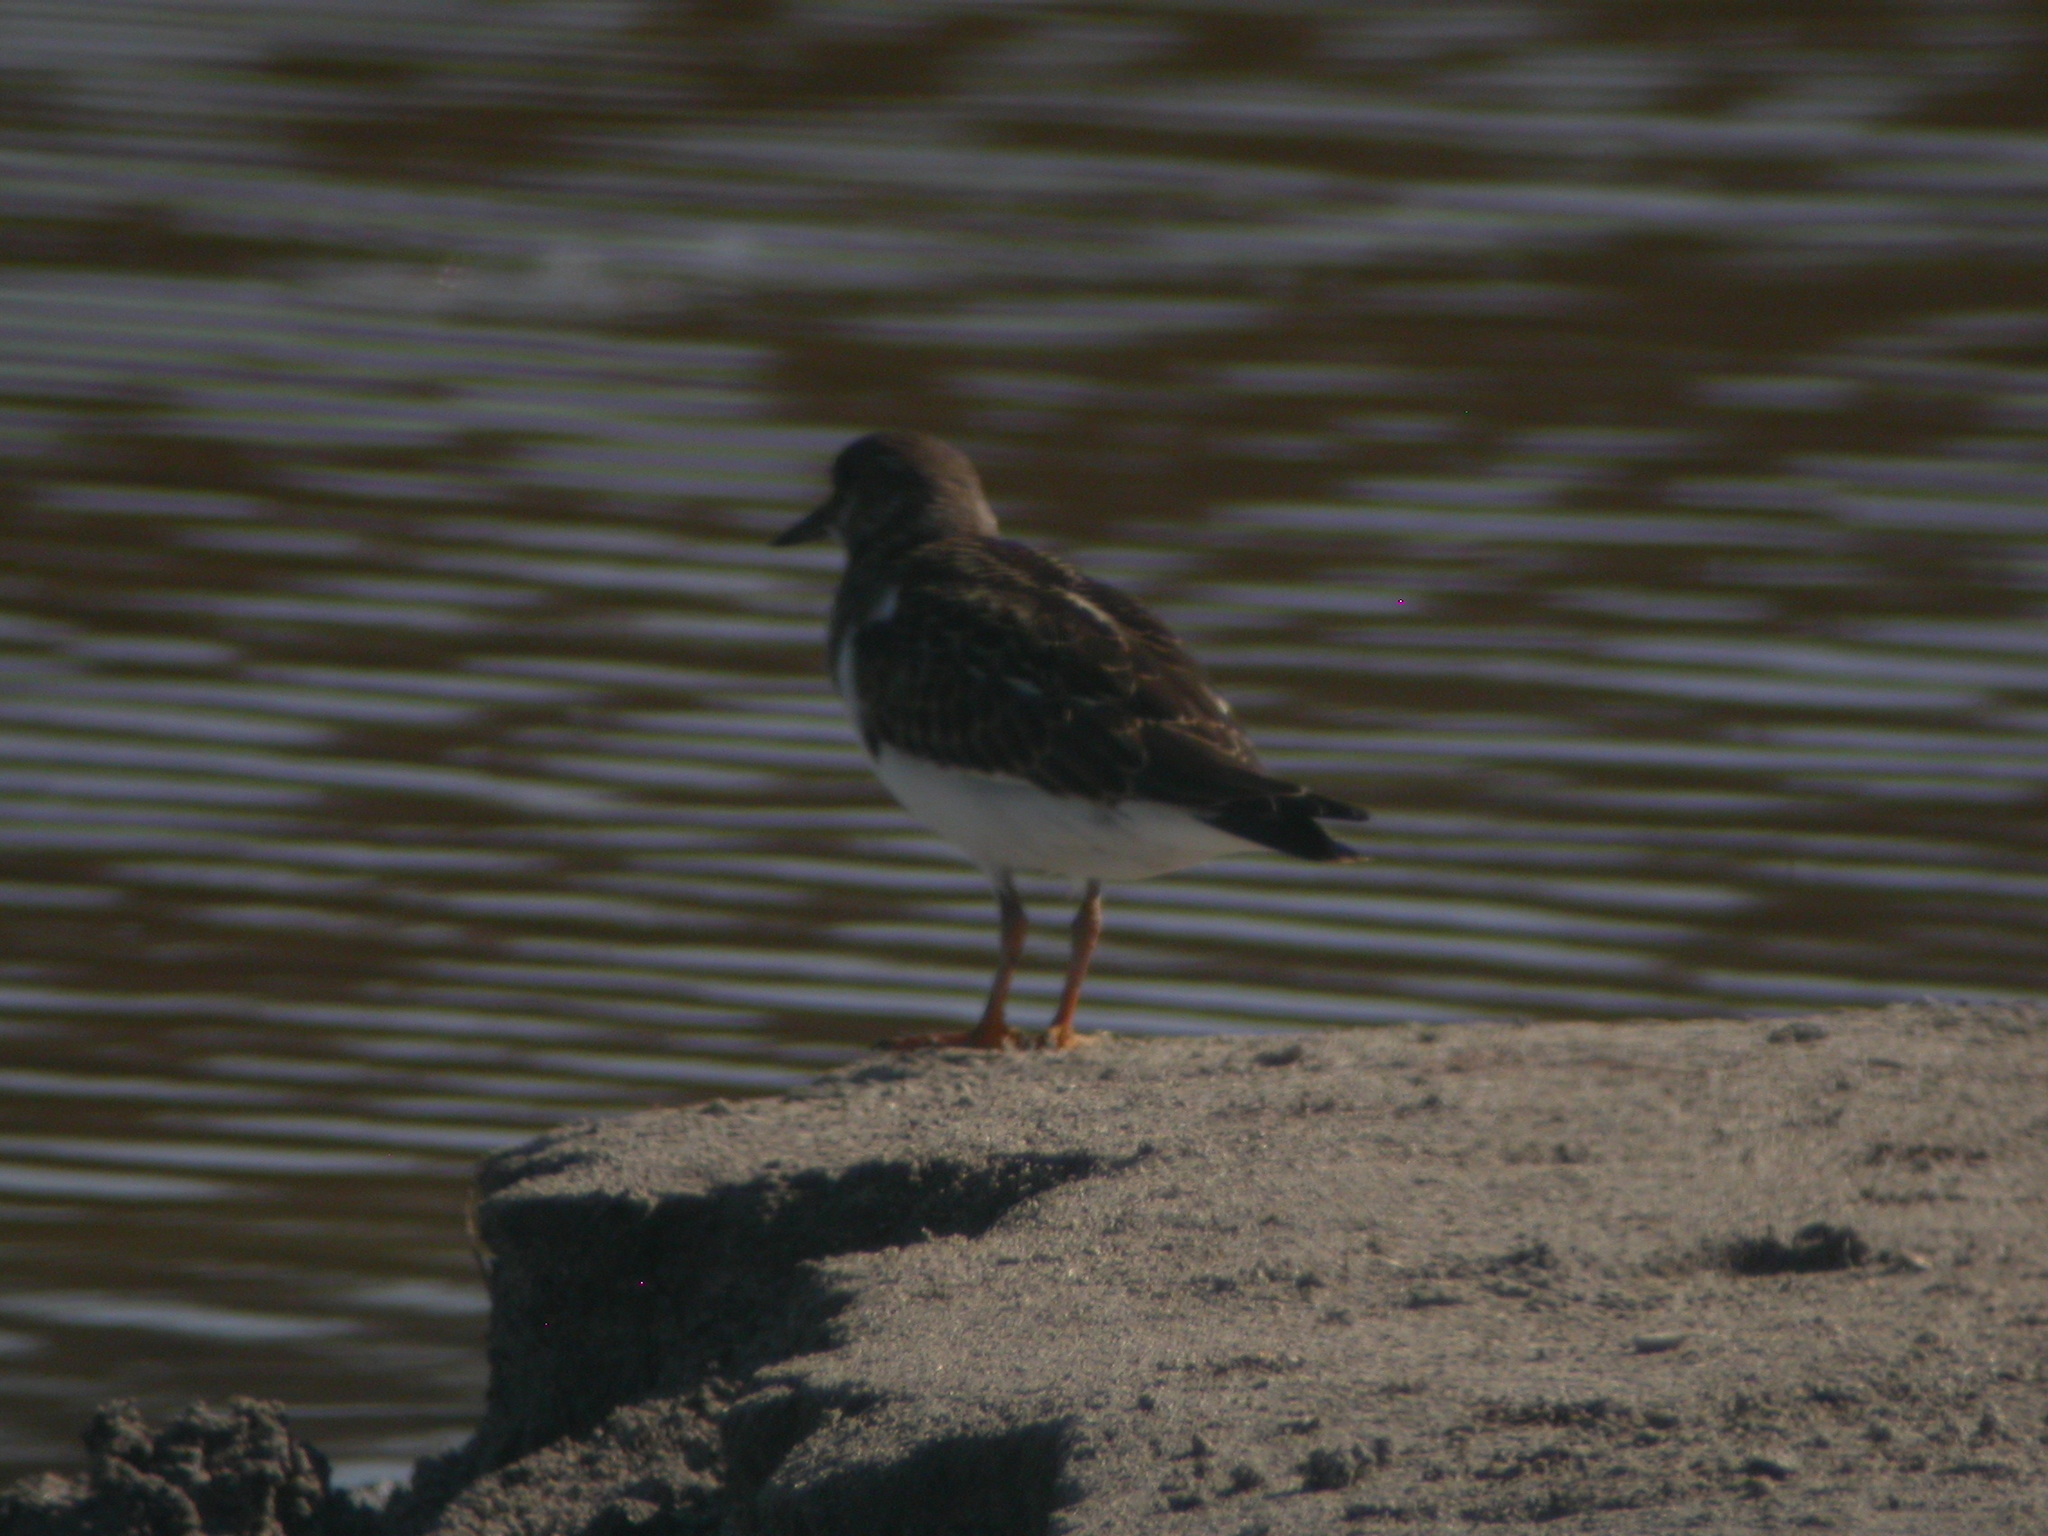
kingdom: Animalia
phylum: Chordata
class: Aves
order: Charadriiformes
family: Scolopacidae
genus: Arenaria
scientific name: Arenaria interpres
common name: Ruddy turnstone
